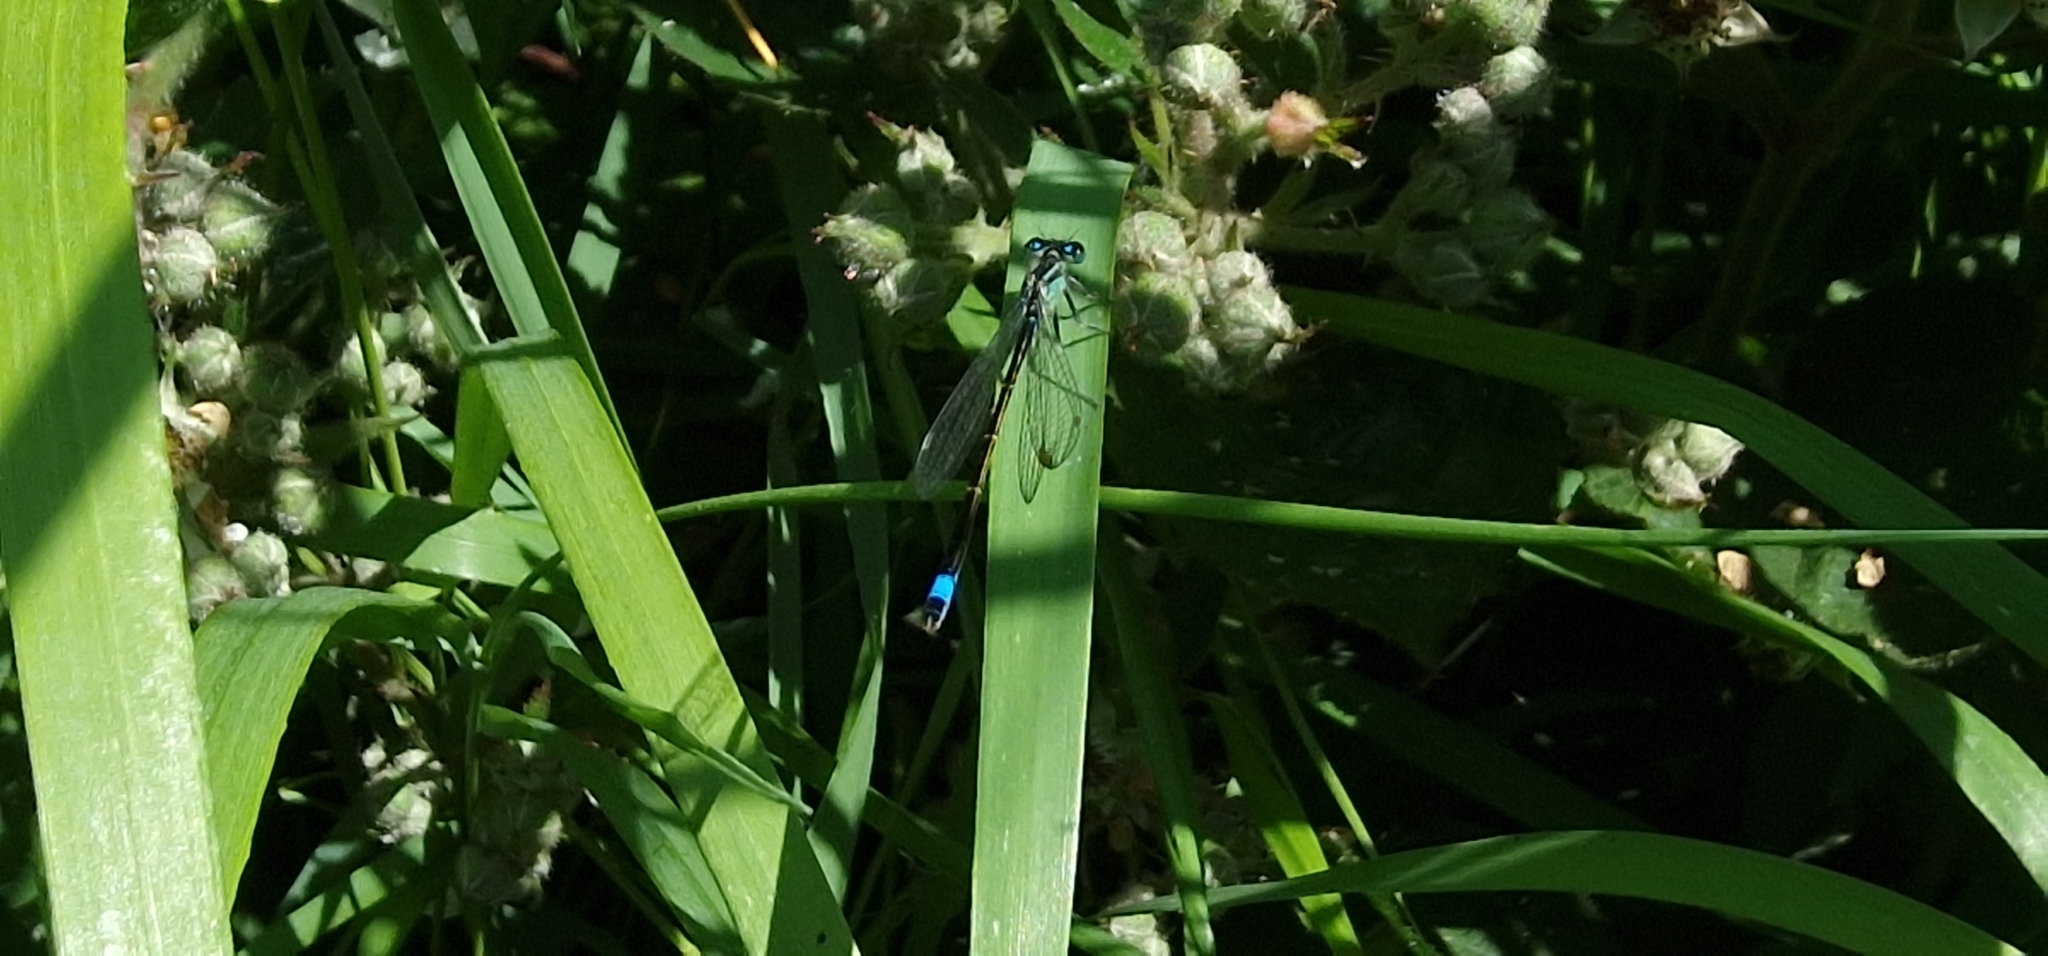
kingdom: Animalia
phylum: Arthropoda
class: Insecta
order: Odonata
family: Coenagrionidae
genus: Ischnura
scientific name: Ischnura elegans
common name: Blue-tailed damselfly
